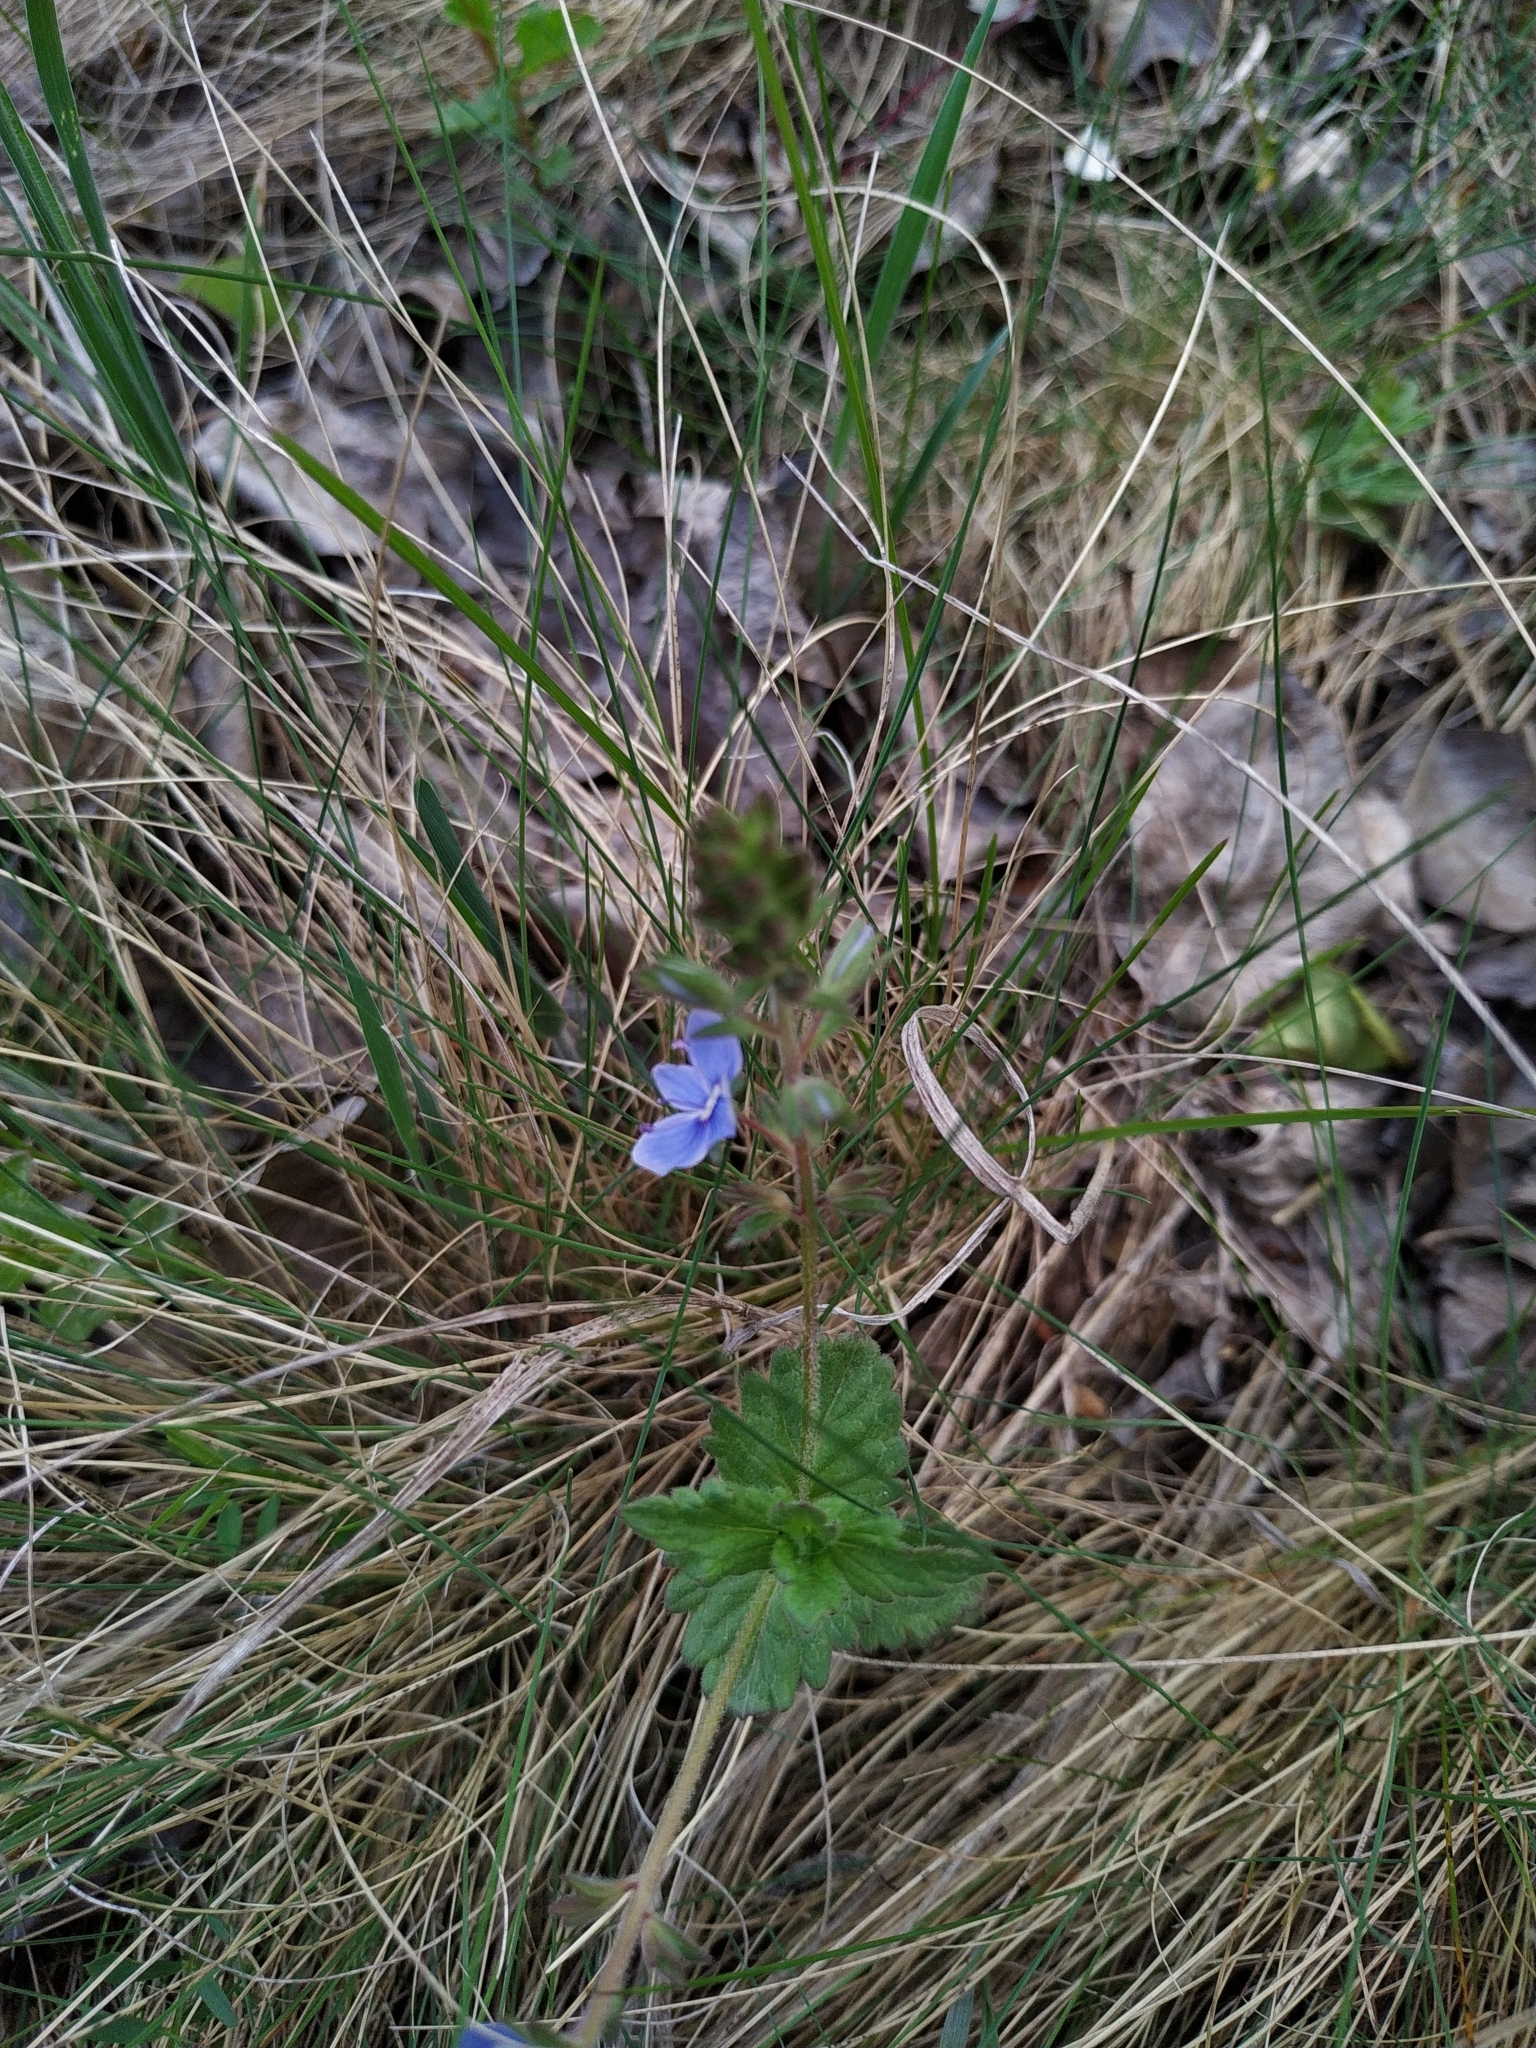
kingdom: Plantae
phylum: Tracheophyta
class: Magnoliopsida
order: Lamiales
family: Plantaginaceae
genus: Veronica
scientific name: Veronica chamaedrys
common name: Germander speedwell
